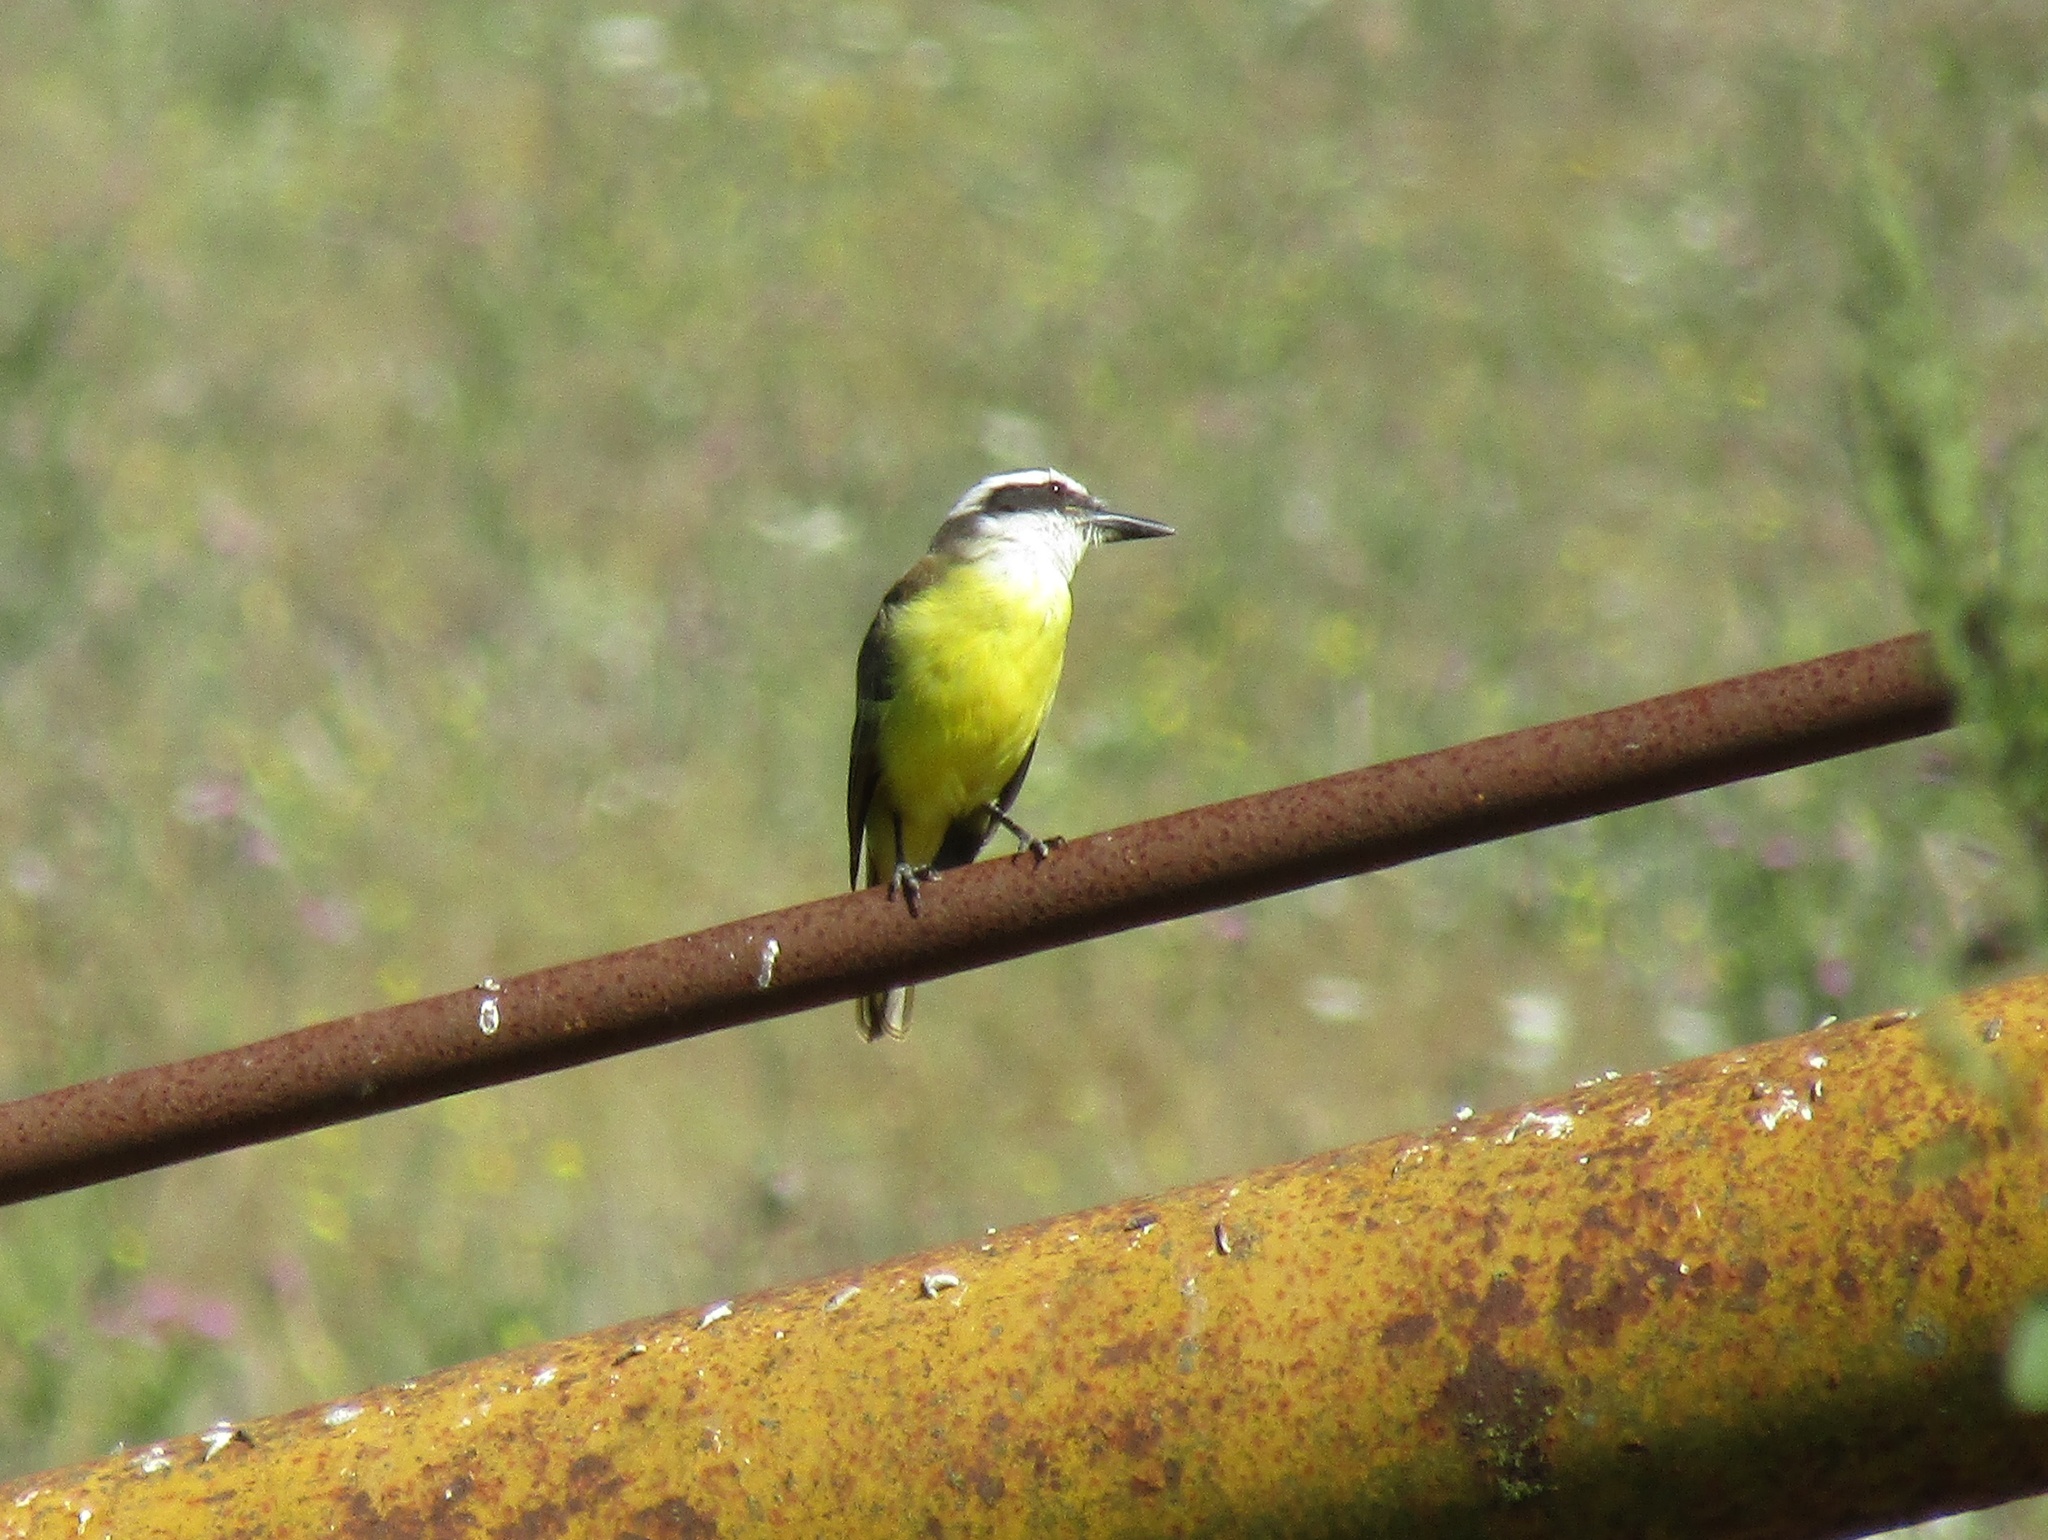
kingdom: Animalia
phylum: Chordata
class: Aves
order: Passeriformes
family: Tyrannidae
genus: Pitangus
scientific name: Pitangus sulphuratus
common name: Great kiskadee
